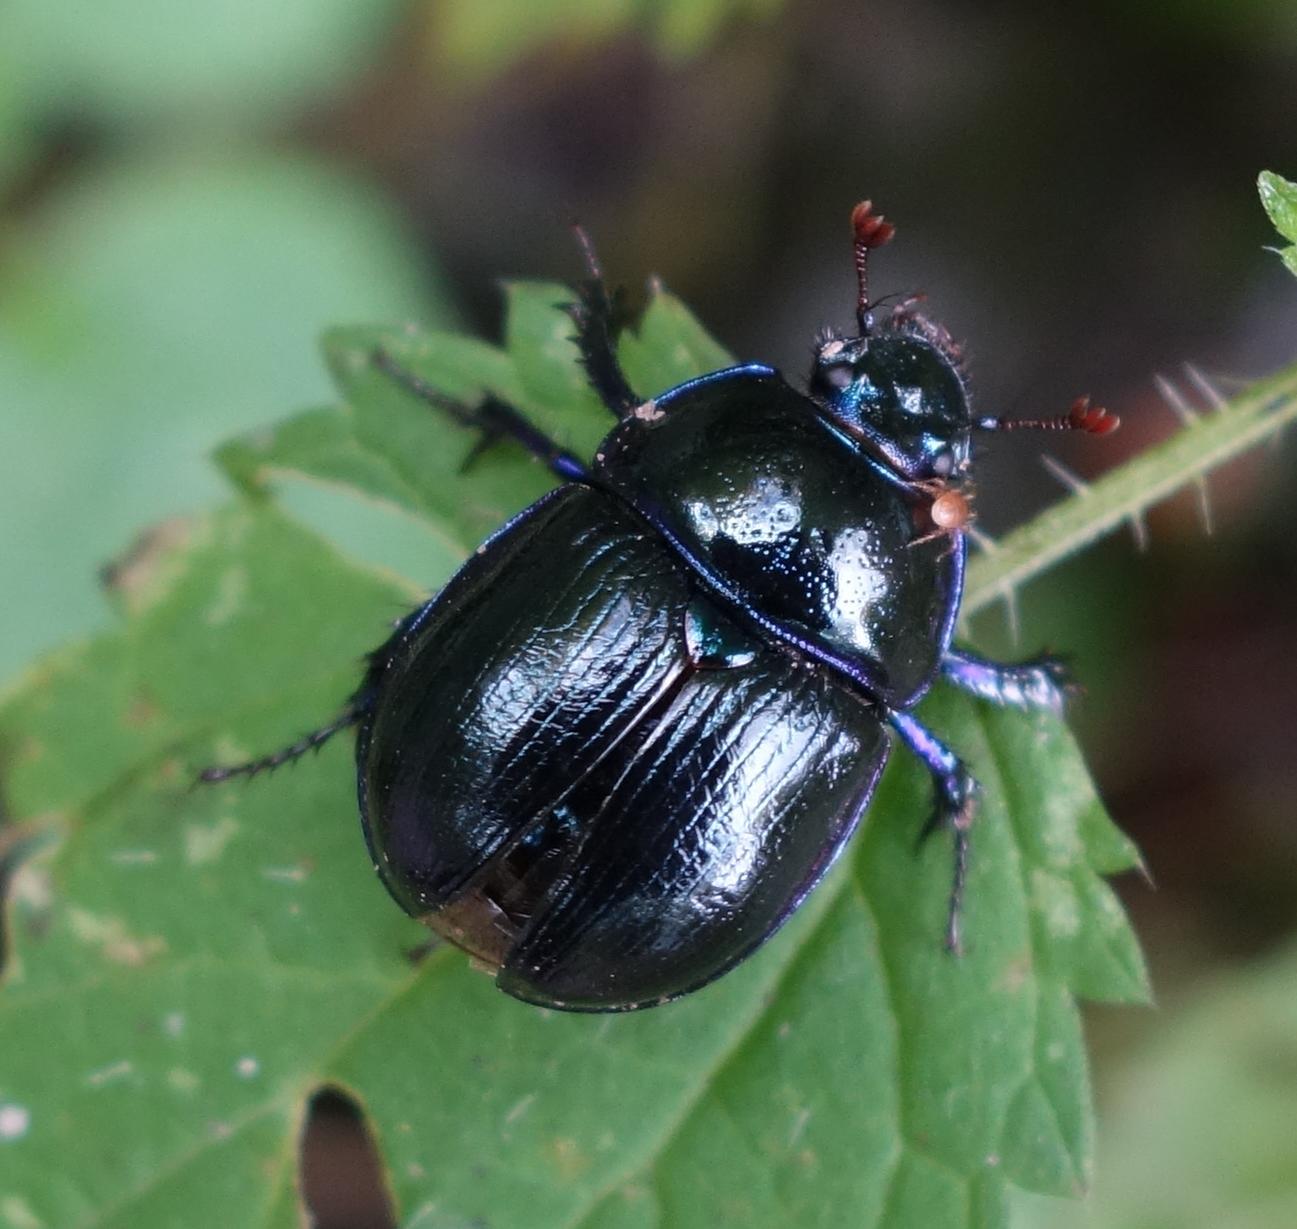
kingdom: Animalia
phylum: Arthropoda
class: Insecta
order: Coleoptera
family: Geotrupidae
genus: Anoplotrupes
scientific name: Anoplotrupes stercorosus
